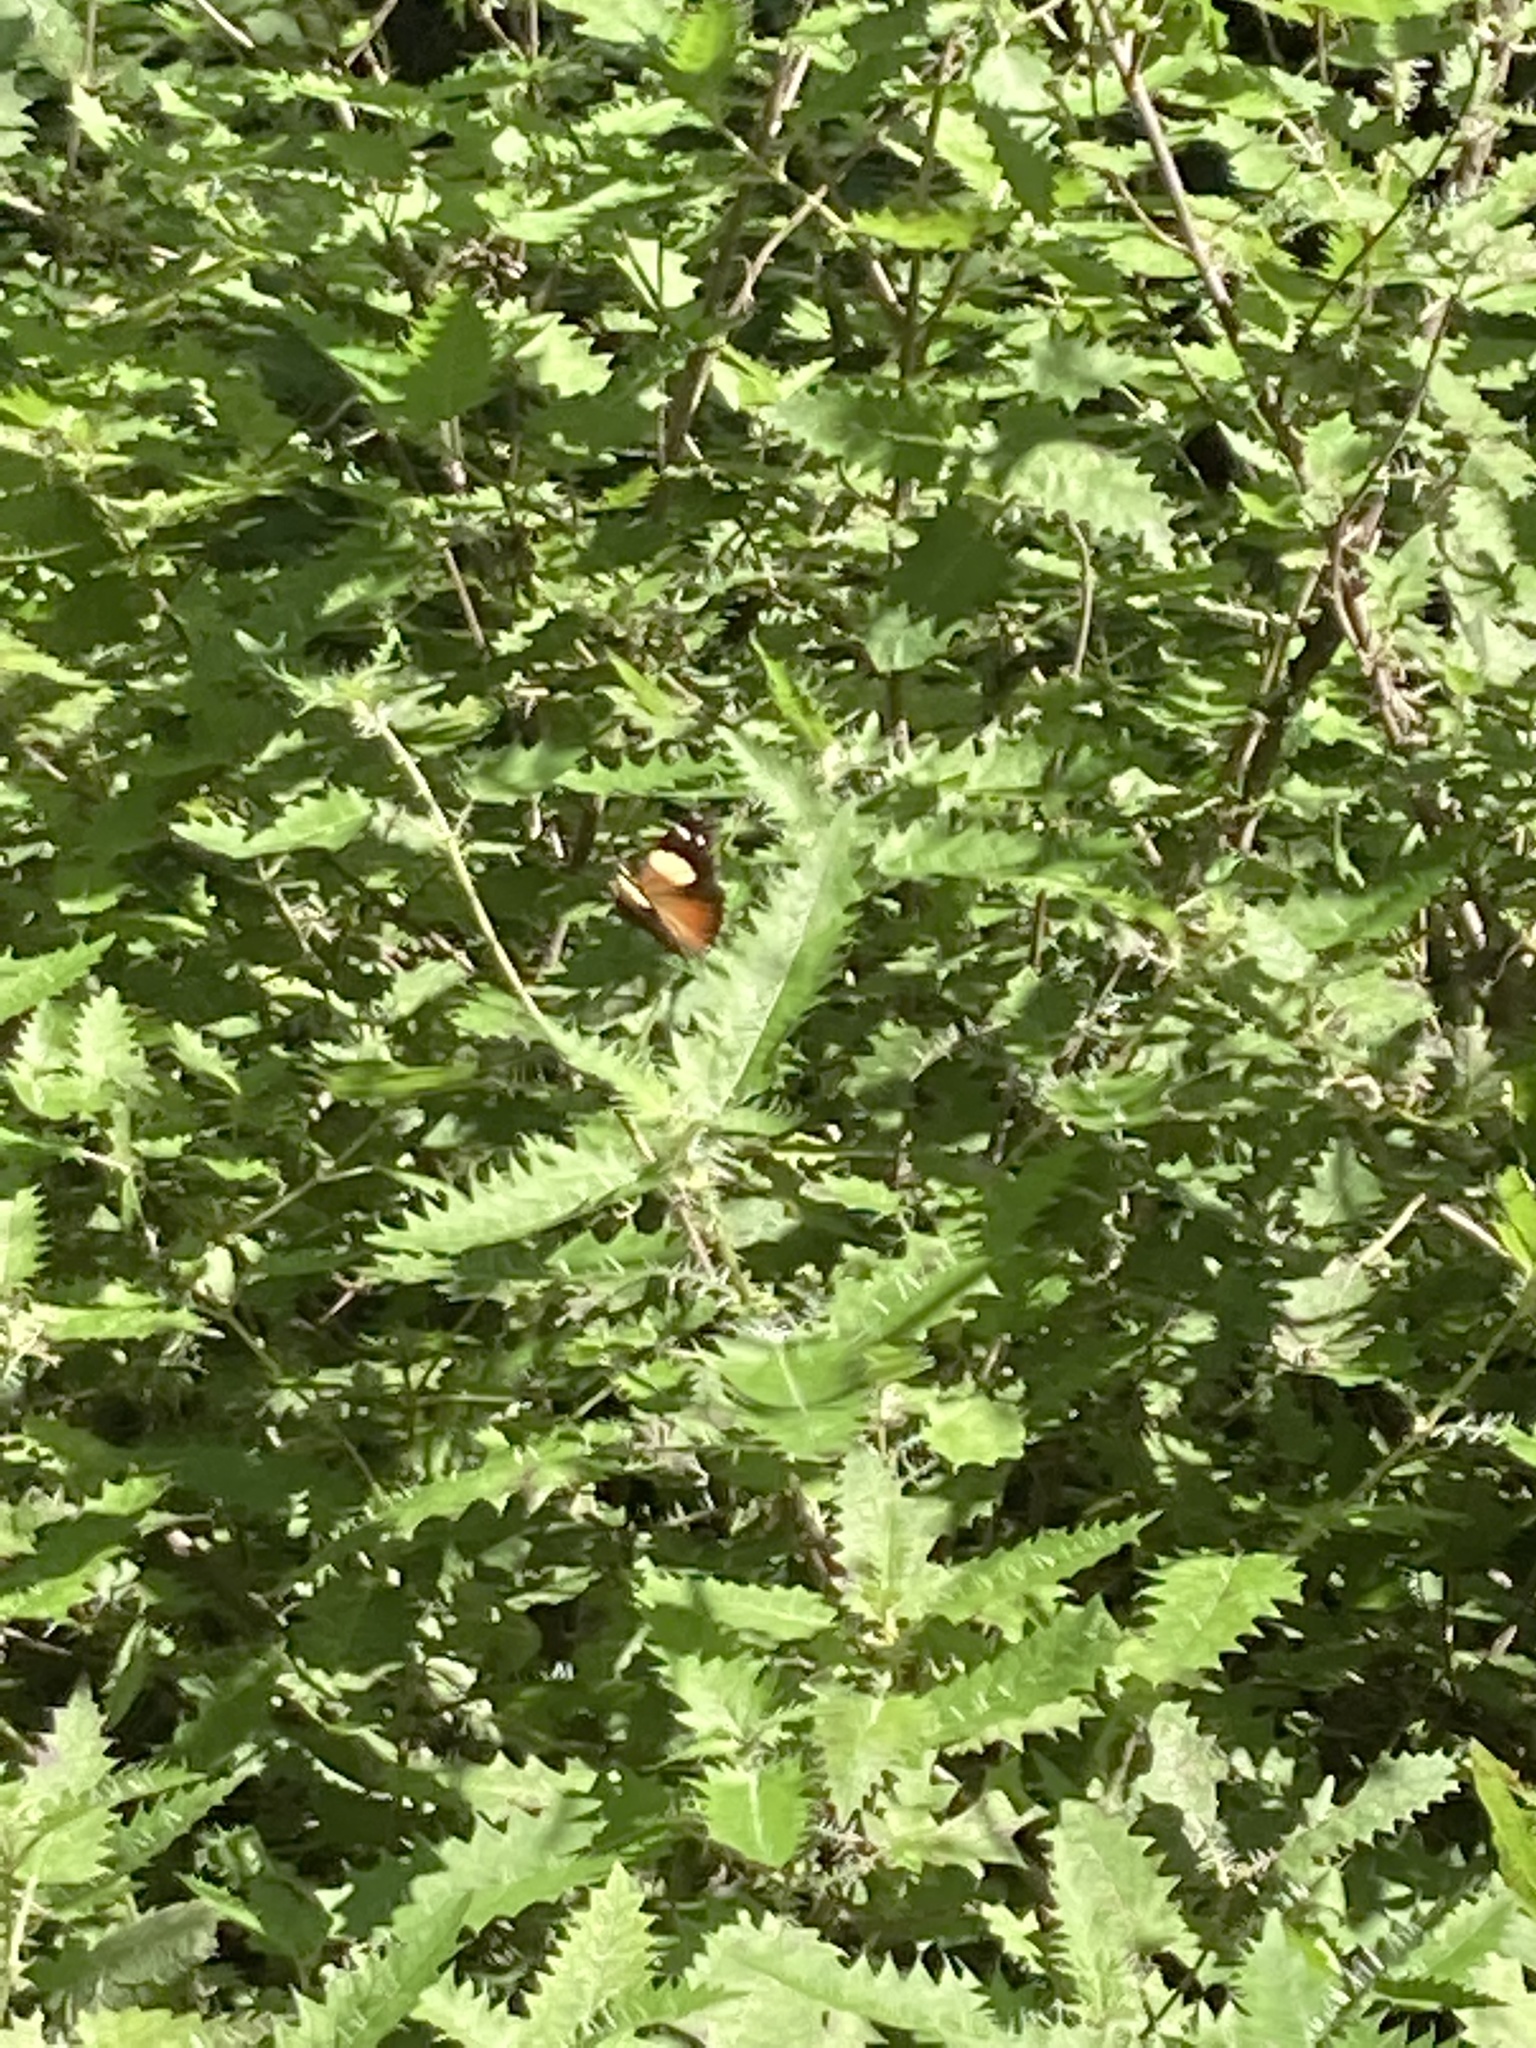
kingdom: Animalia
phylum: Arthropoda
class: Insecta
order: Lepidoptera
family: Nymphalidae
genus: Vanessa
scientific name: Vanessa itea
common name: Yellow admiral
